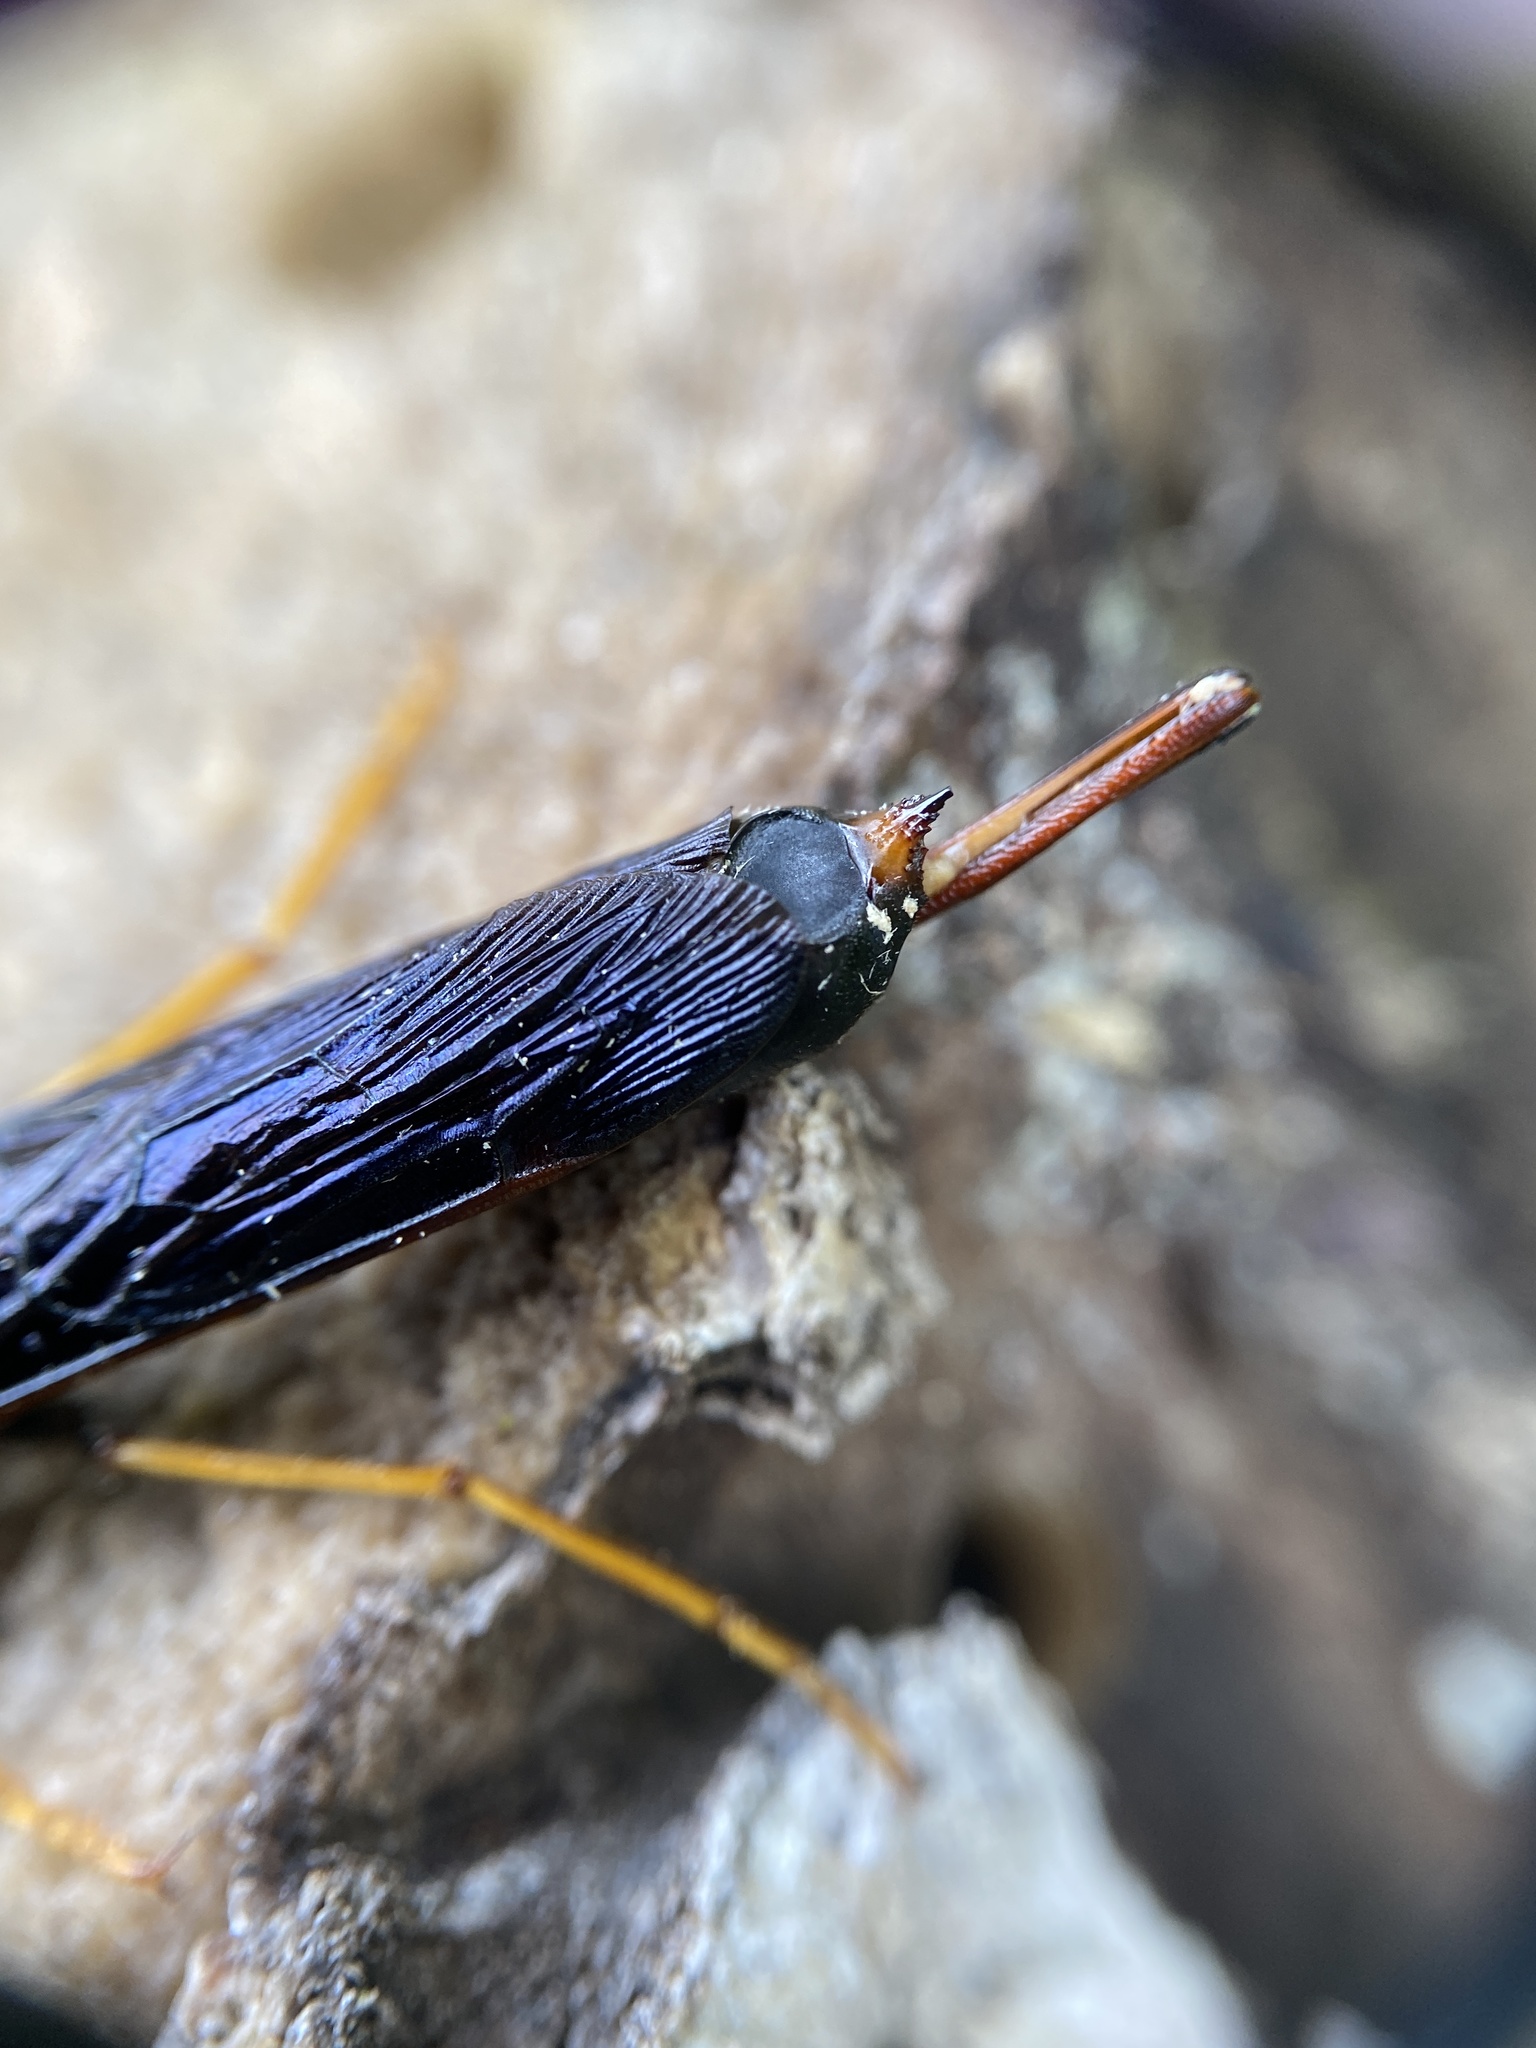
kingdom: Animalia
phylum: Arthropoda
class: Insecta
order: Hymenoptera
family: Siricidae
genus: Tremex
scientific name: Tremex columba
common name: Wasp
